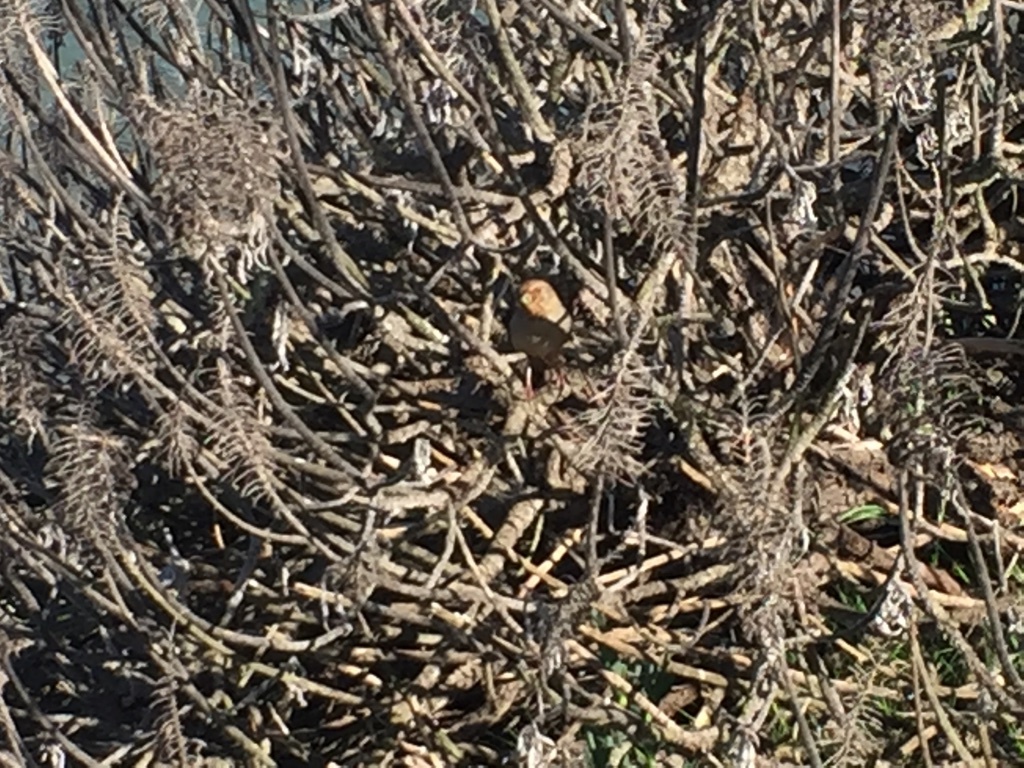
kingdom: Animalia
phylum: Chordata
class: Aves
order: Passeriformes
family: Passerellidae
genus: Melozone
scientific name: Melozone crissalis
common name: California towhee
